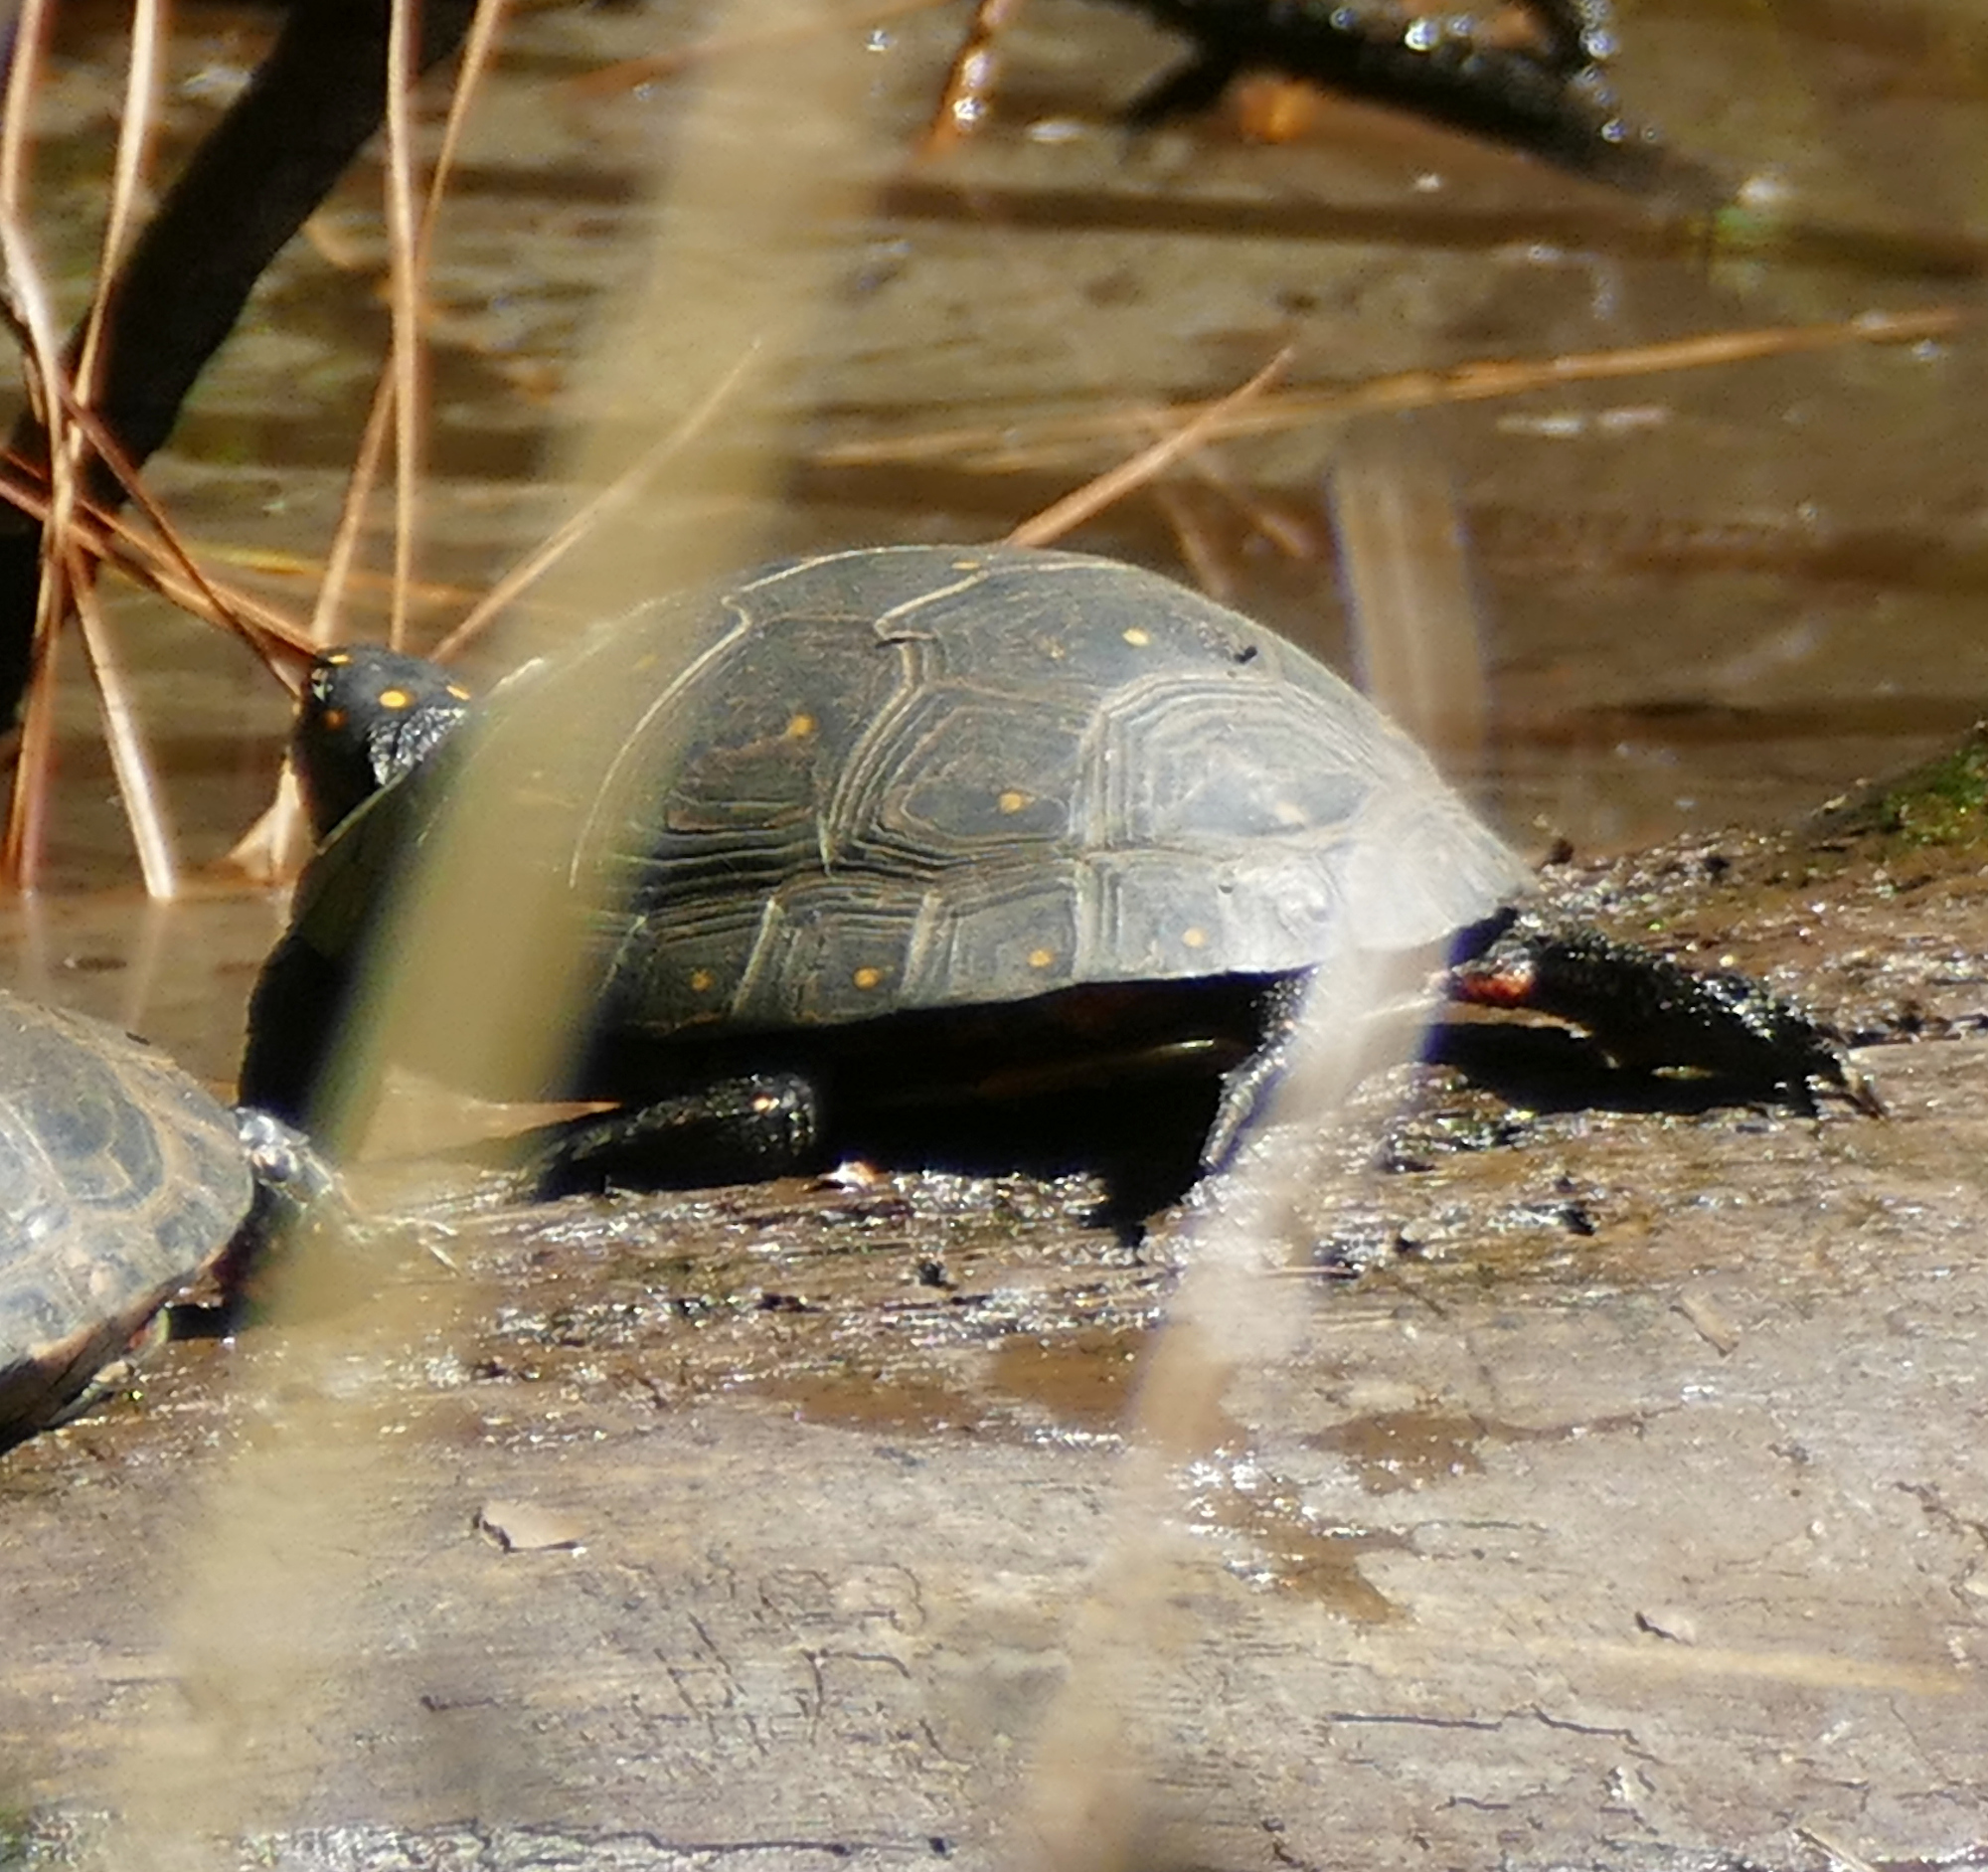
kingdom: Animalia
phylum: Chordata
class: Testudines
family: Emydidae
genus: Clemmys
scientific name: Clemmys guttata
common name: Spotted turtle
